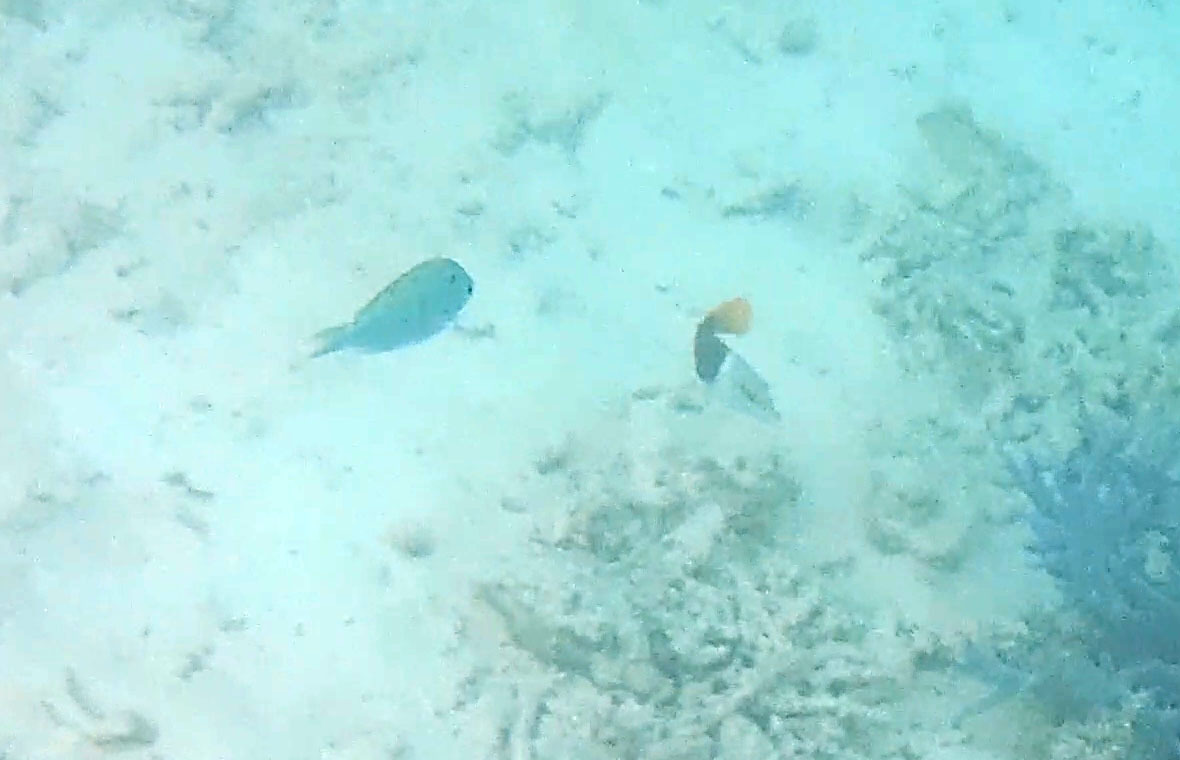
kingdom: Animalia
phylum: Chordata
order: Perciformes
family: Labridae
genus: Hemigymnus
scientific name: Hemigymnus melapterus
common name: Blackeye thicklip
